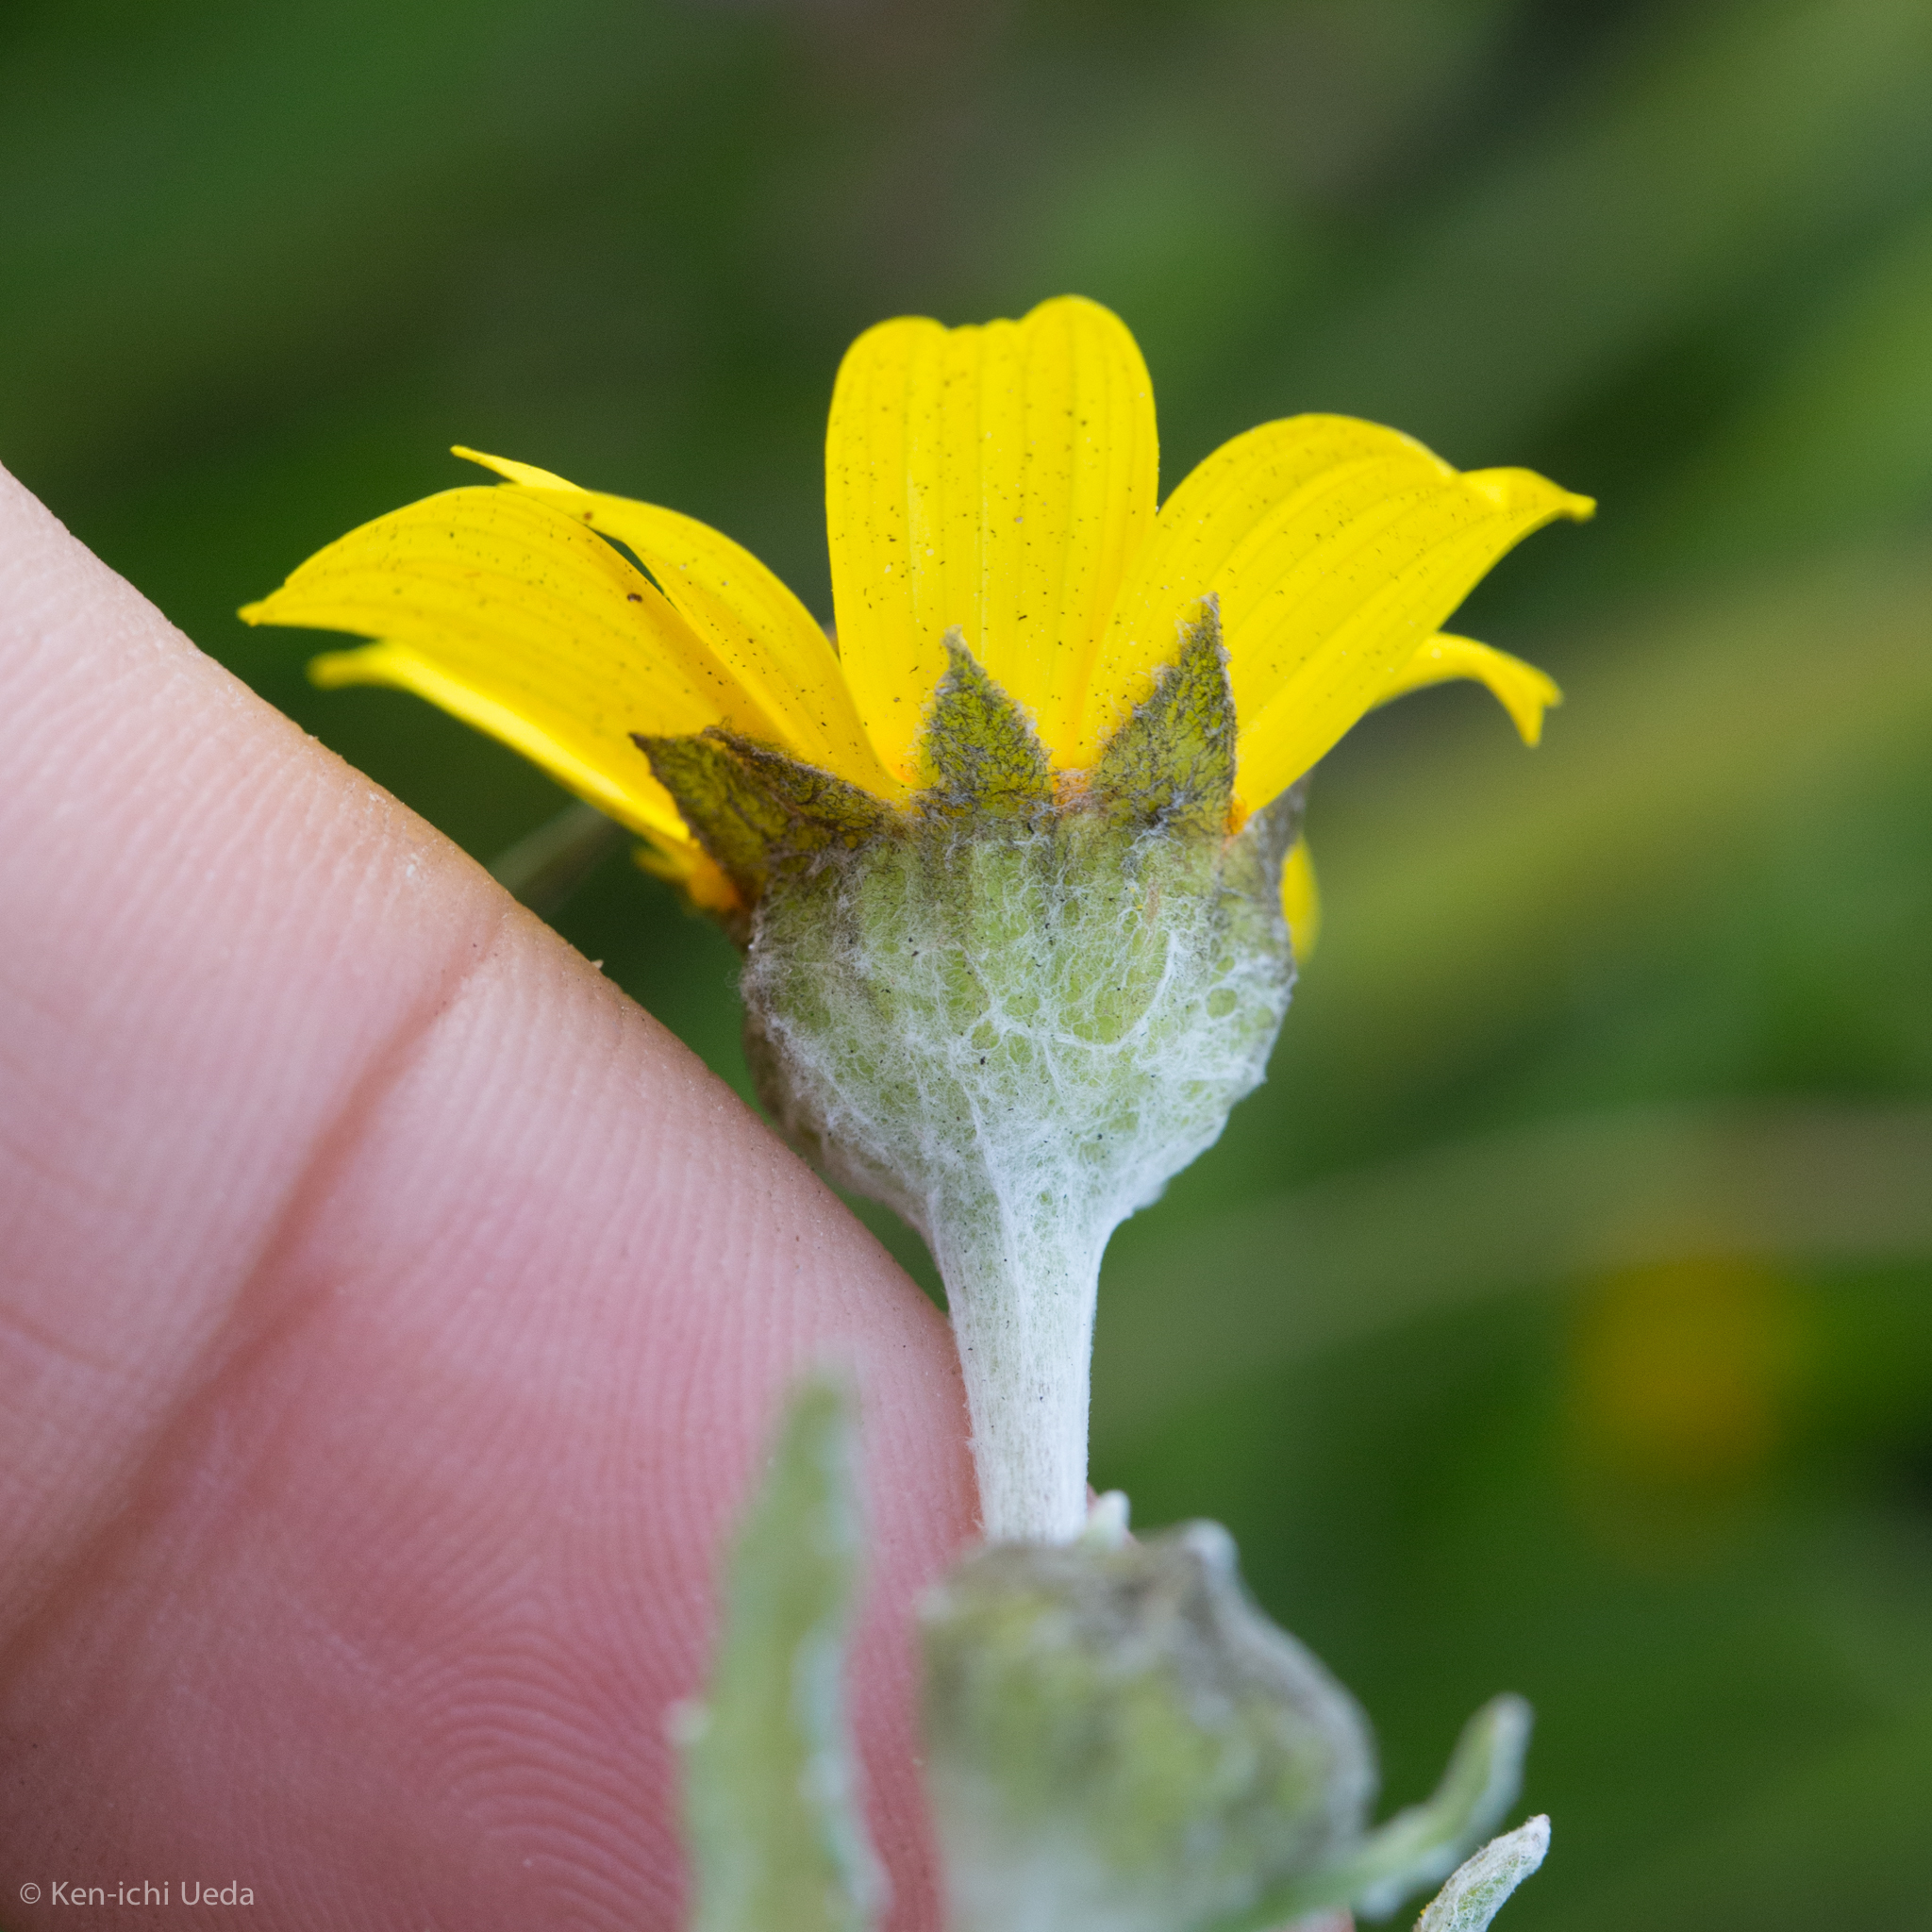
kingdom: Plantae
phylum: Tracheophyta
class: Magnoliopsida
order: Asterales
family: Asteraceae
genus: Monolopia
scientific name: Monolopia lanceolata
